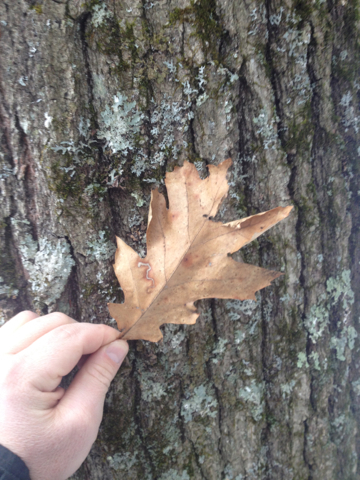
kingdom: Plantae
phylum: Tracheophyta
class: Magnoliopsida
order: Fagales
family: Fagaceae
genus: Quercus
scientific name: Quercus rubra
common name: Red oak
